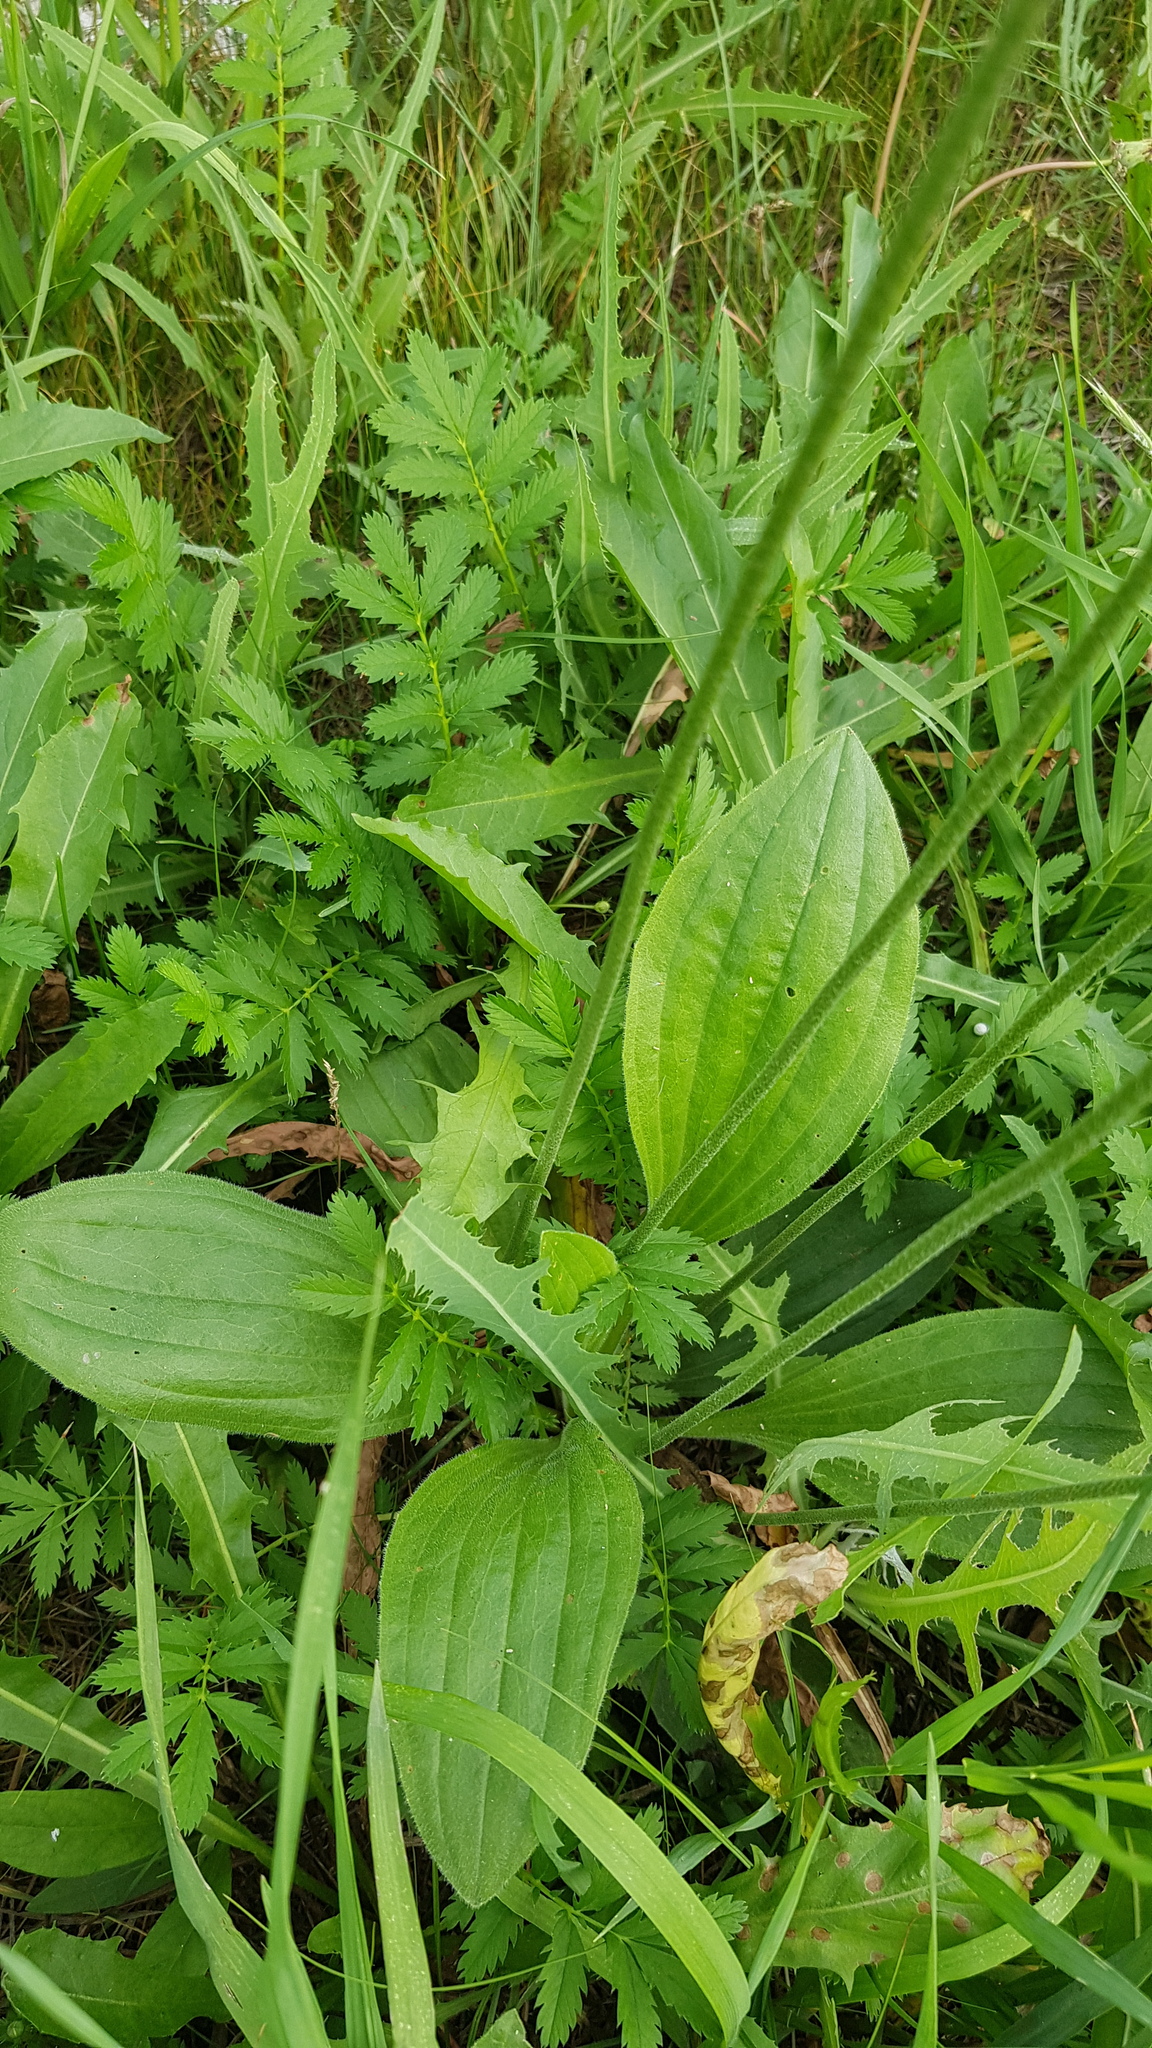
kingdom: Plantae
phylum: Tracheophyta
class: Magnoliopsida
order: Lamiales
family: Plantaginaceae
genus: Plantago
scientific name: Plantago media
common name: Hoary plantain
